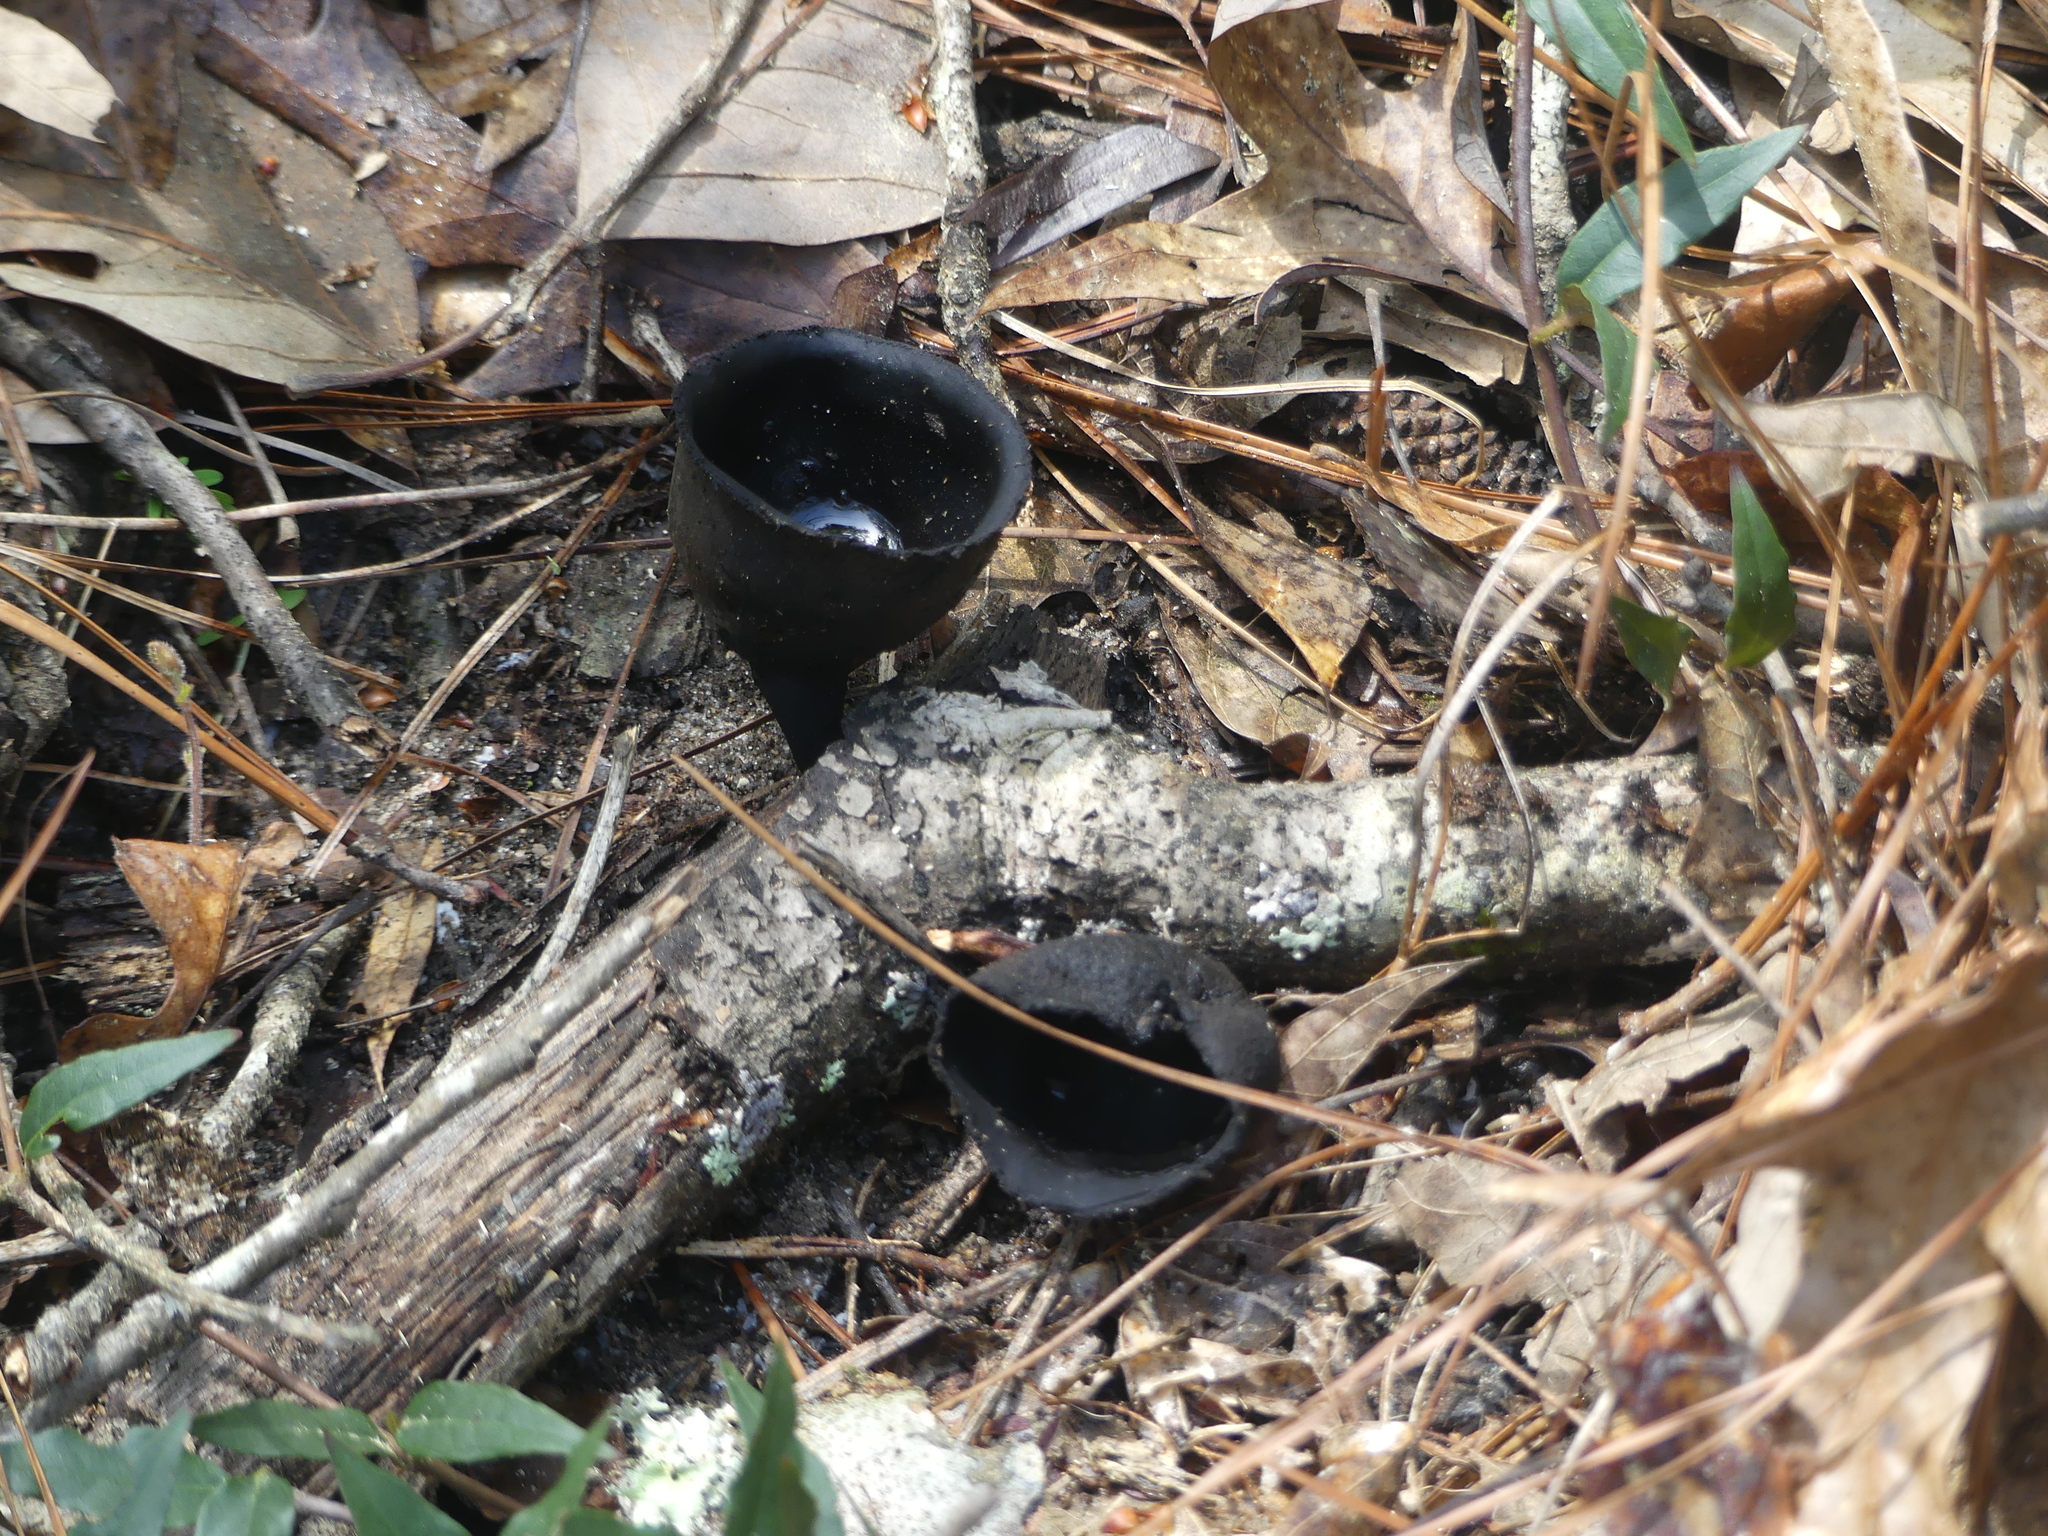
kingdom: Fungi
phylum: Ascomycota
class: Pezizomycetes
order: Pezizales
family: Sarcosomataceae
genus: Urnula
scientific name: Urnula craterium
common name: Devil's urn
